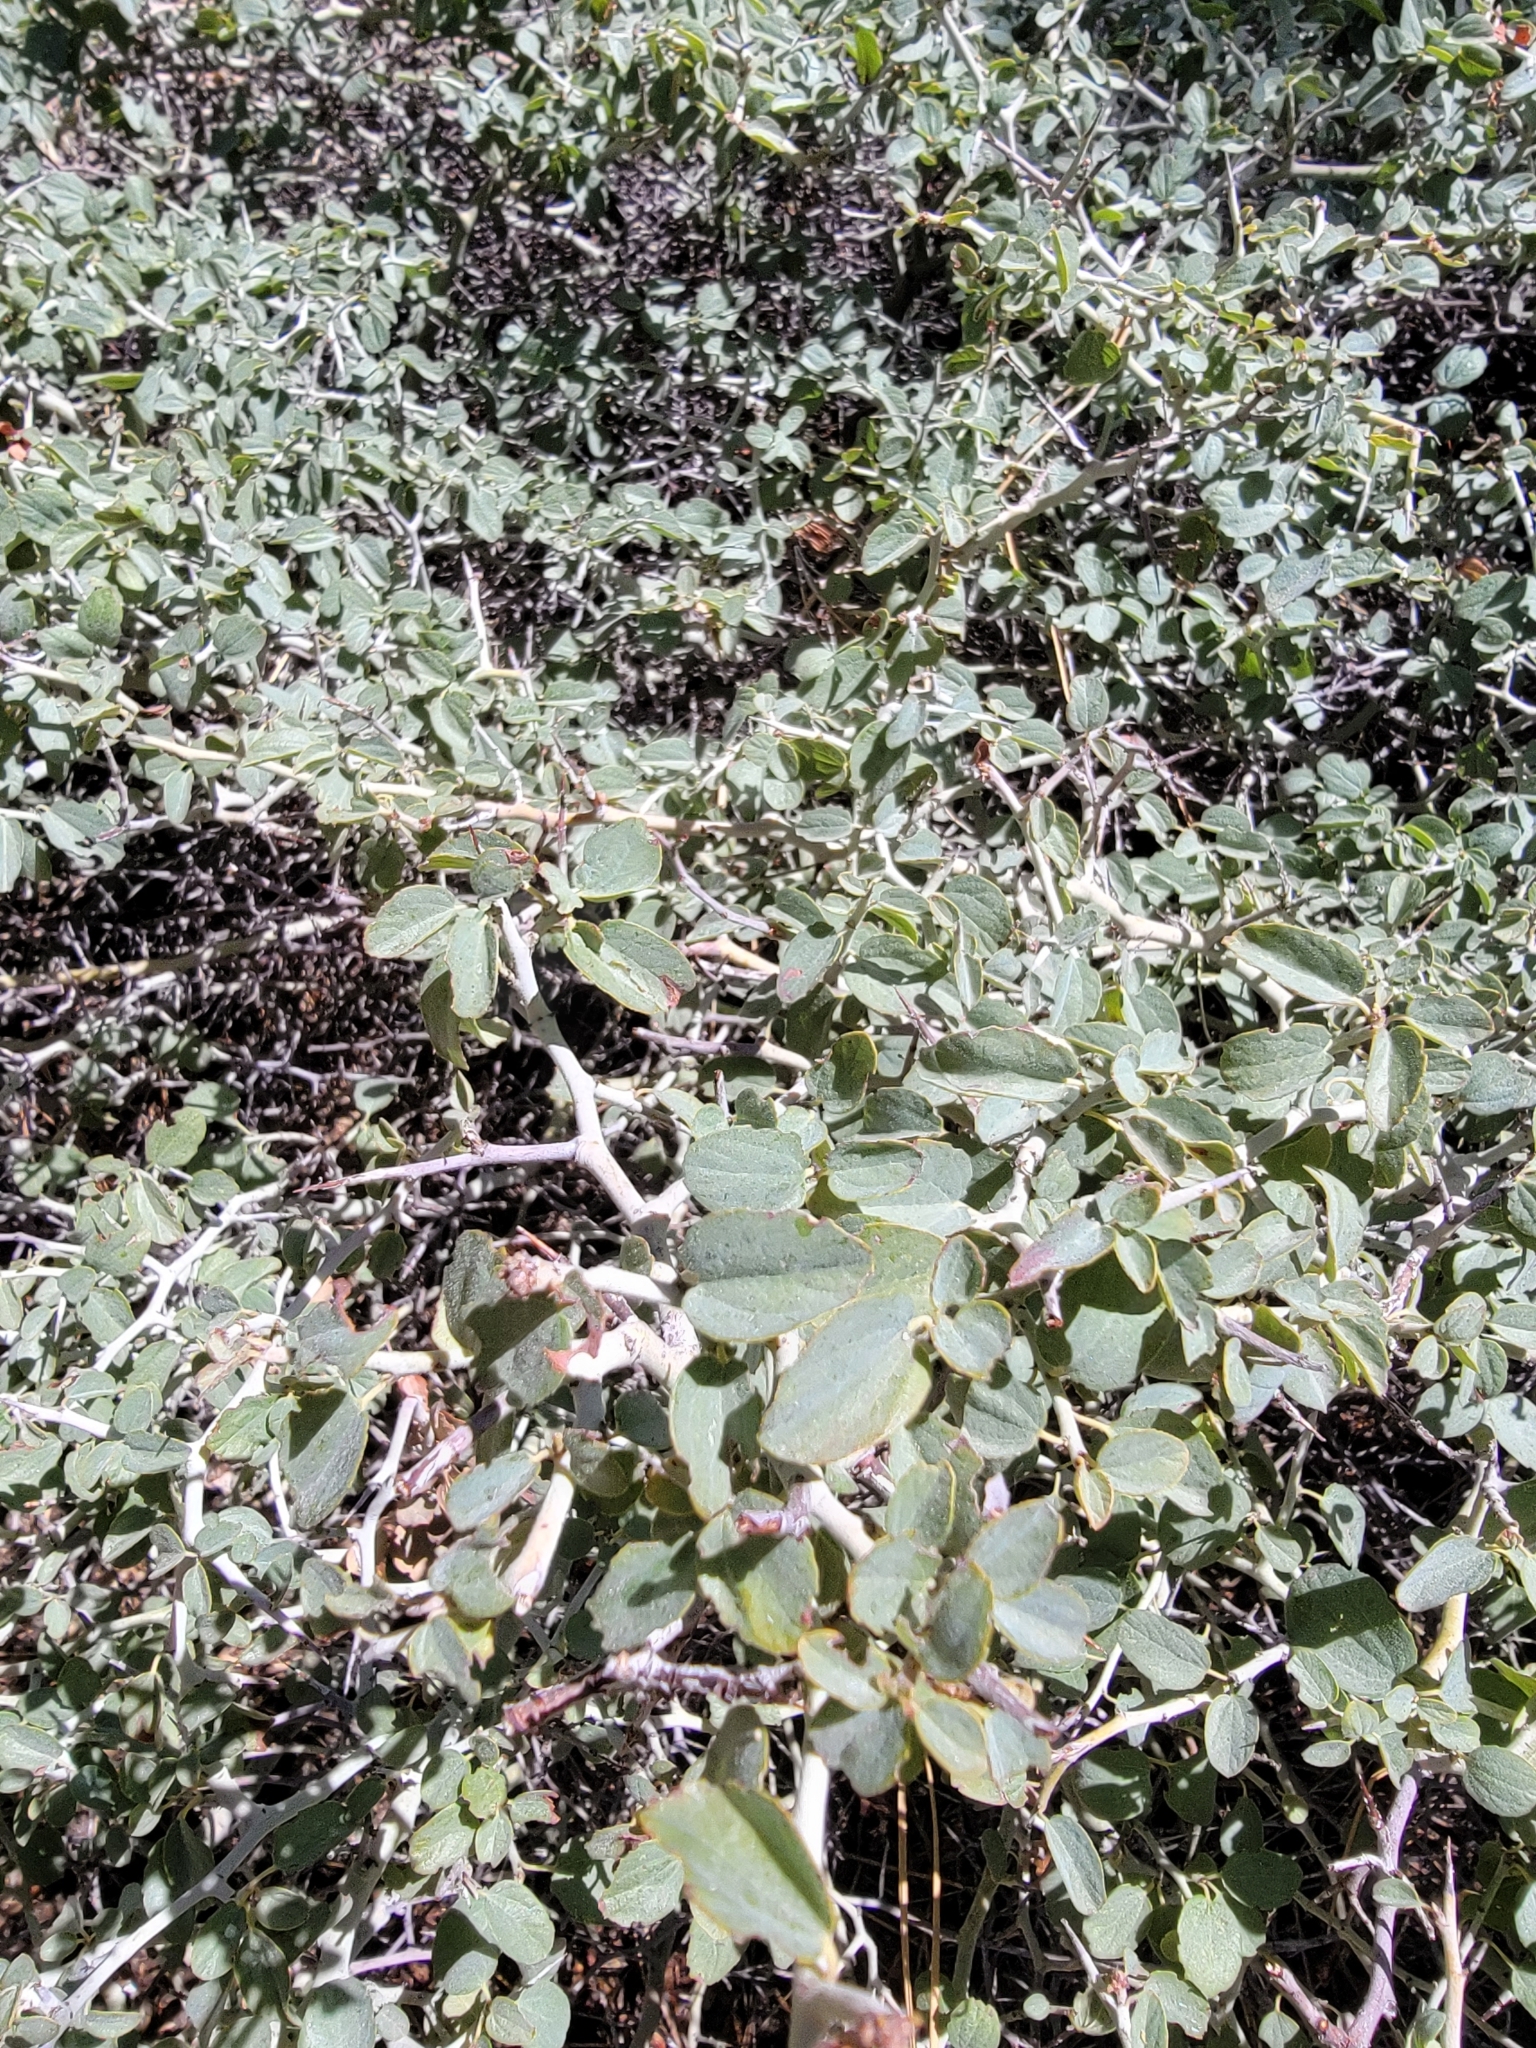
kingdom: Plantae
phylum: Tracheophyta
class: Magnoliopsida
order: Rosales
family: Rhamnaceae
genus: Ceanothus
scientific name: Ceanothus cordulatus
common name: Mountain whitethorn
